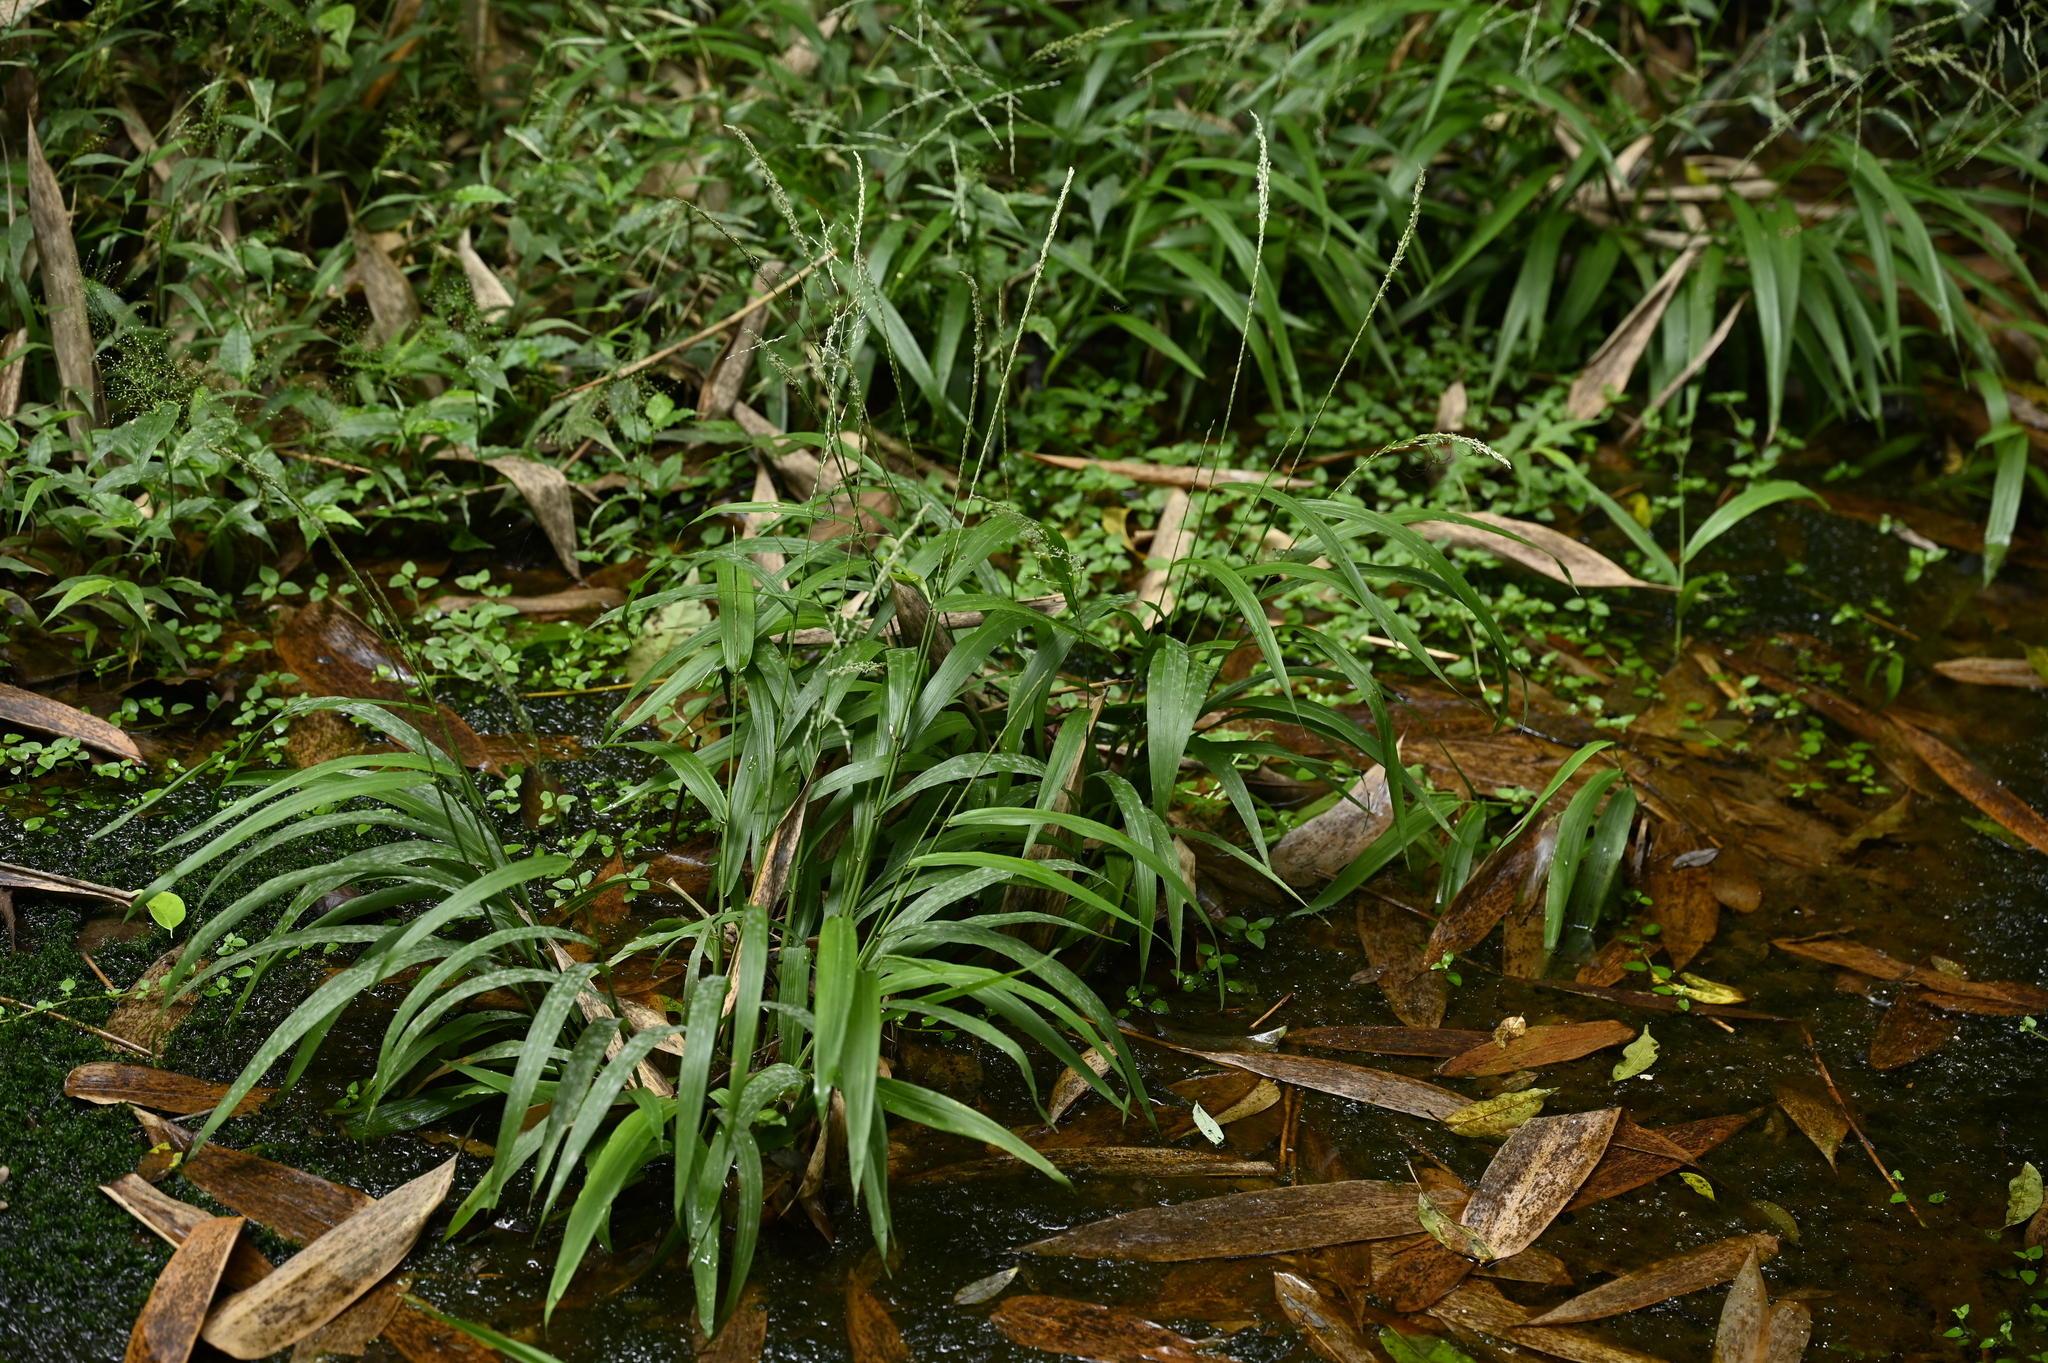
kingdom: Plantae
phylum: Tracheophyta
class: Liliopsida
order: Poales
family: Poaceae
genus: Chikusichloa
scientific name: Chikusichloa mutica
